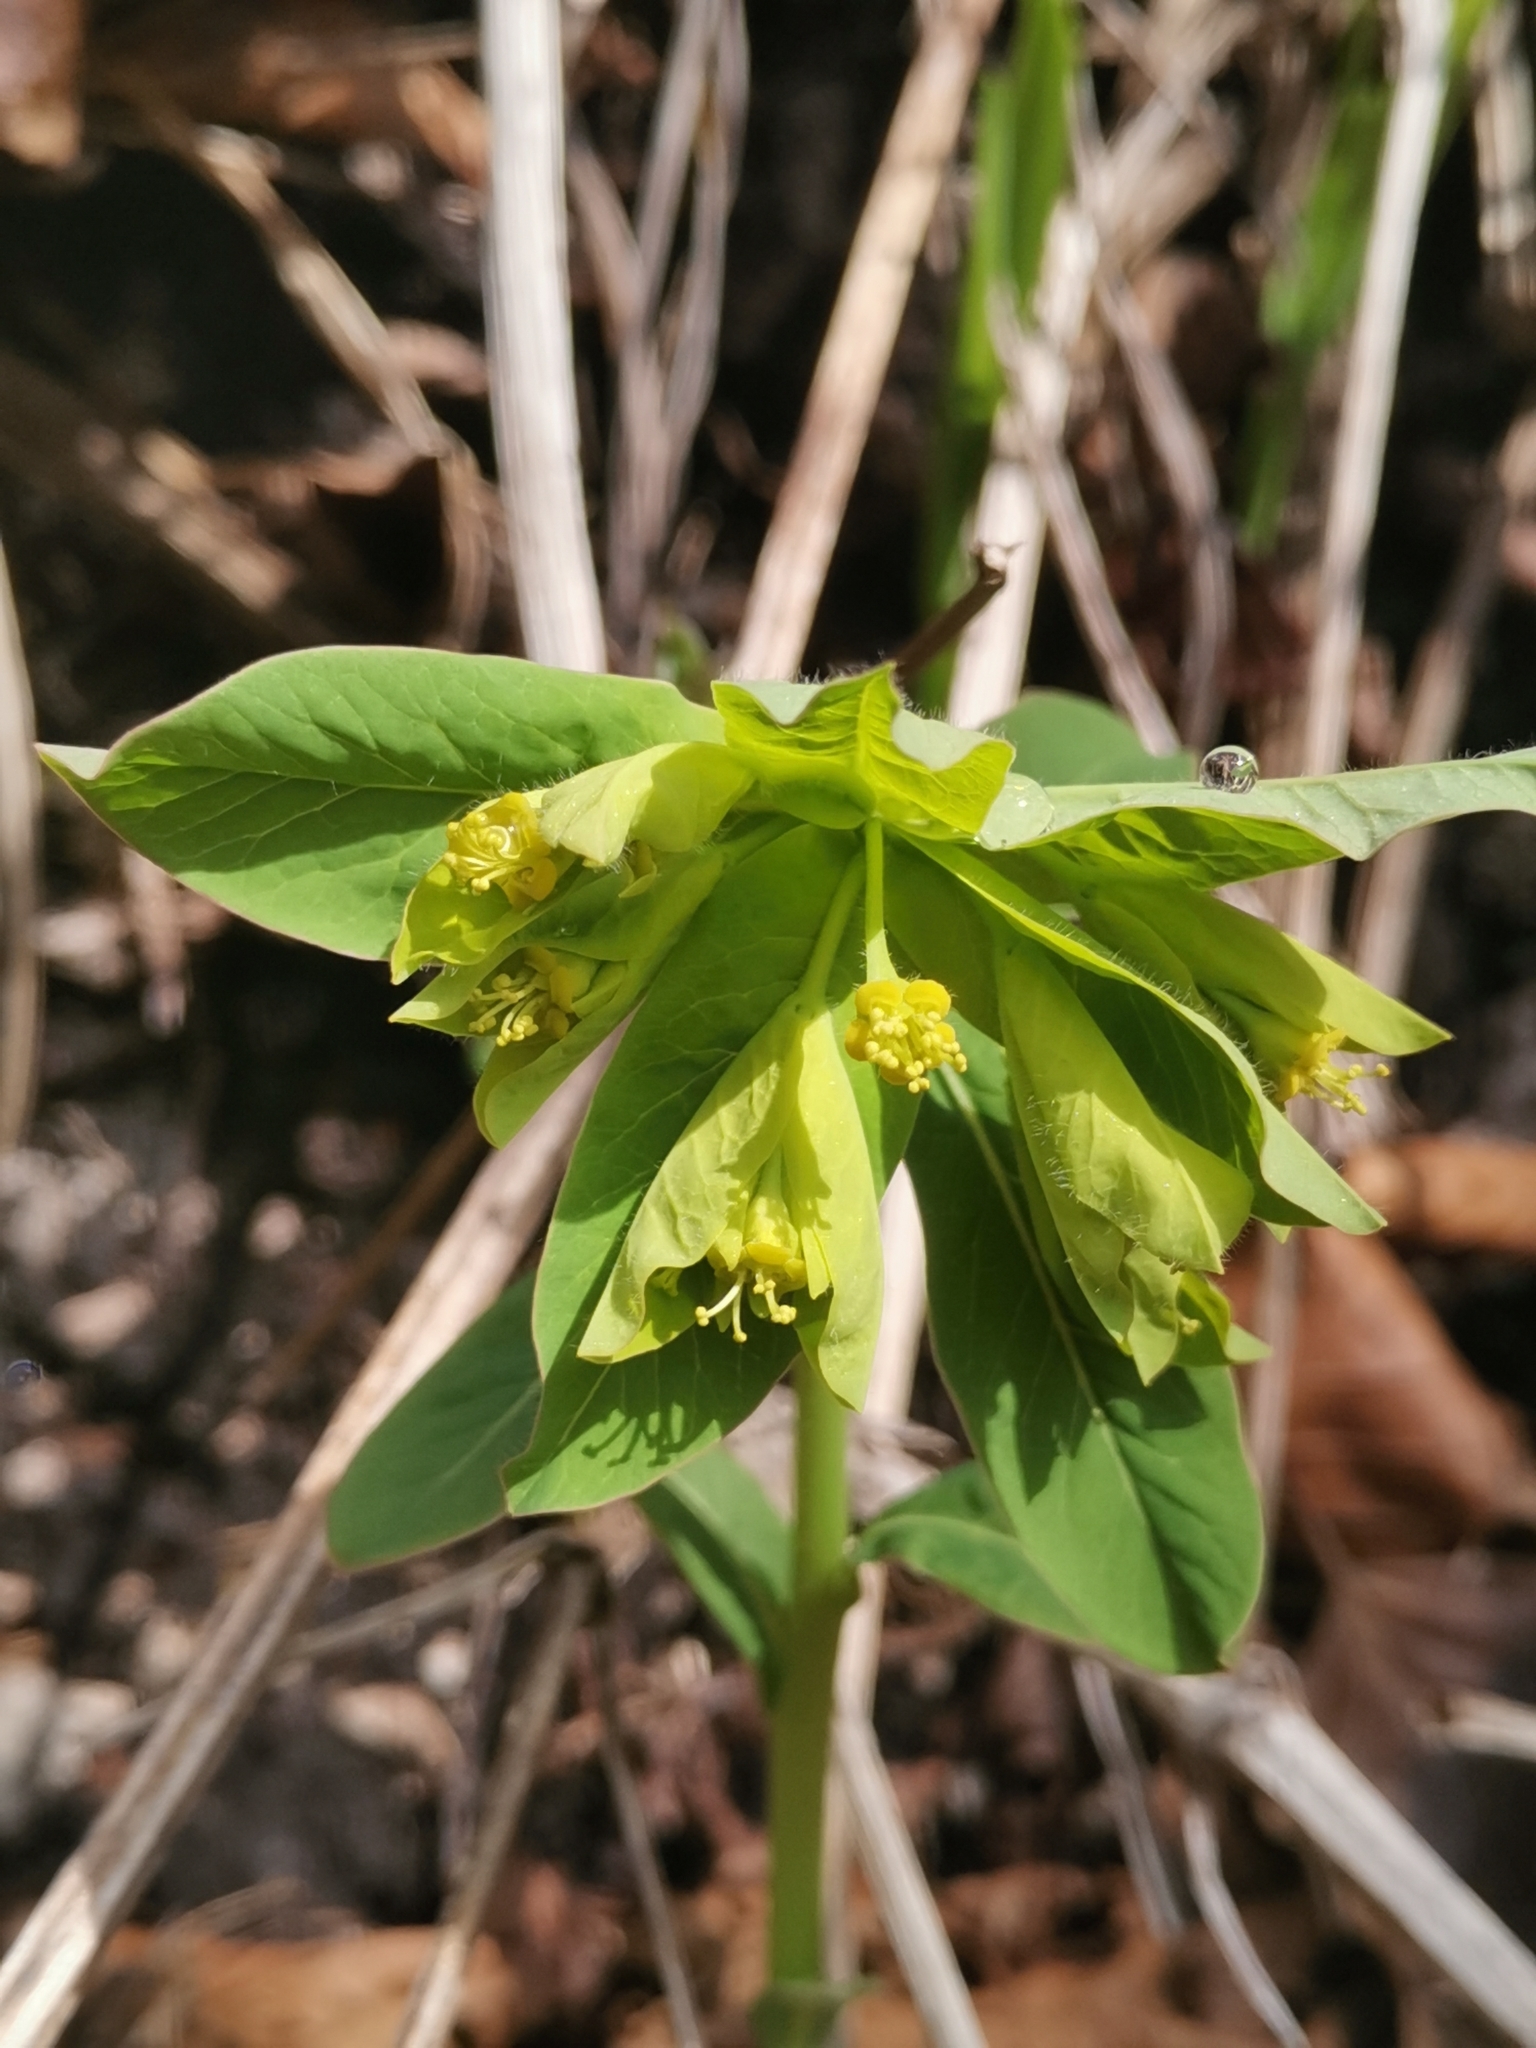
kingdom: Plantae
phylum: Tracheophyta
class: Magnoliopsida
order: Malpighiales
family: Euphorbiaceae
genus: Euphorbia
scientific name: Euphorbia carniolica
